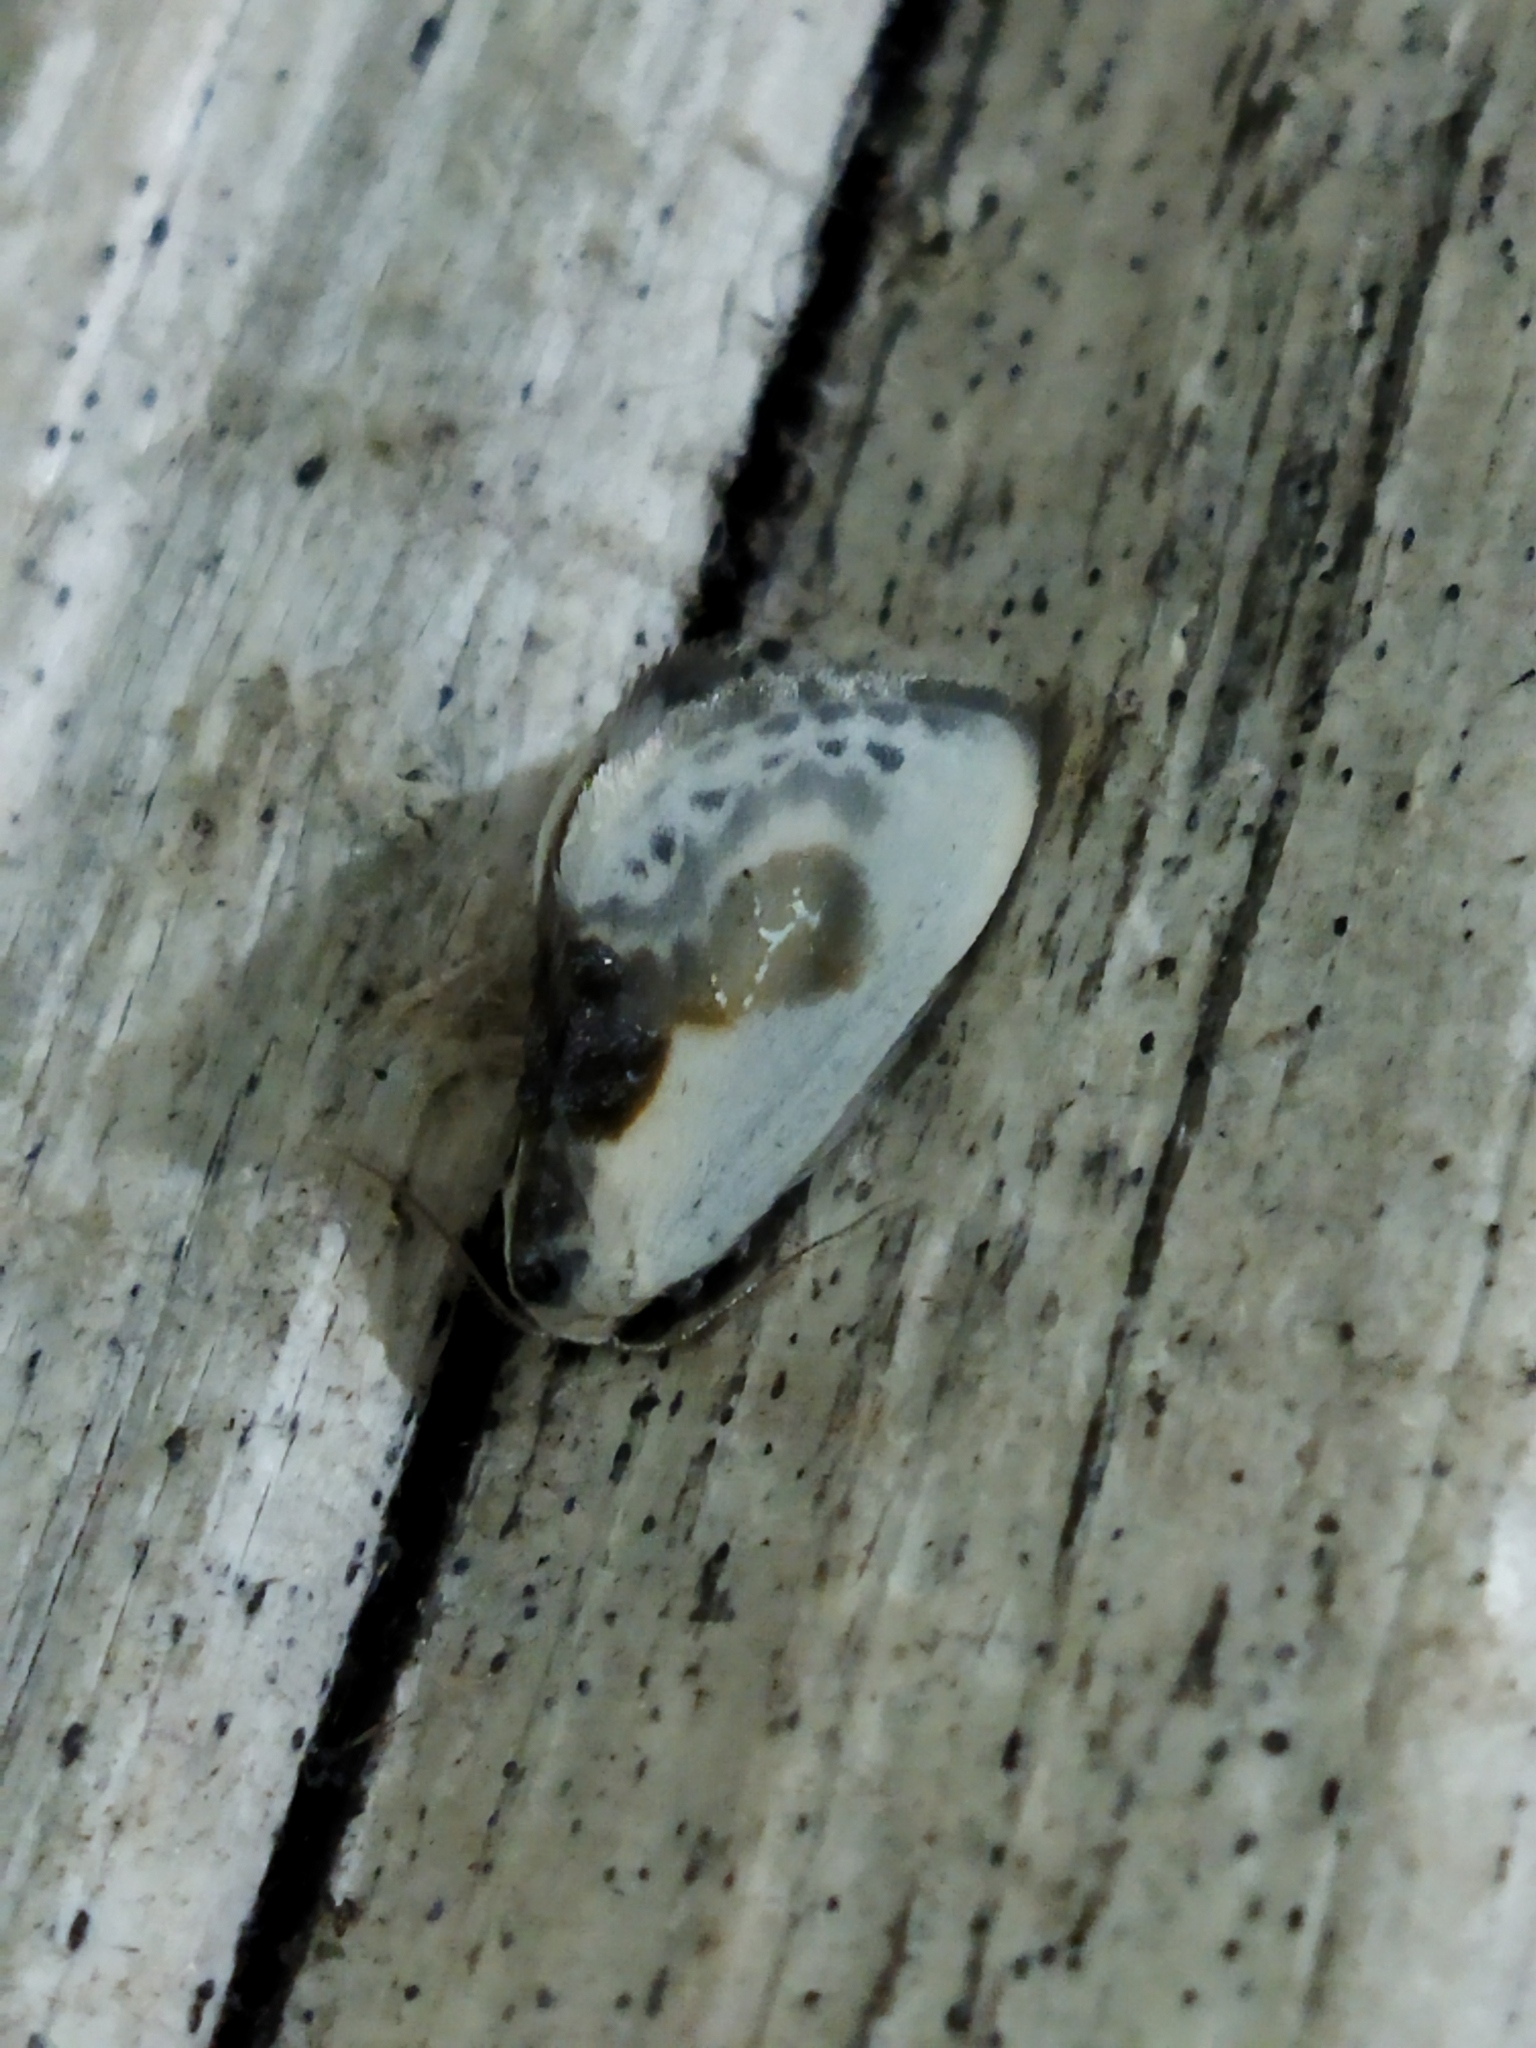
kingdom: Animalia
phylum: Arthropoda
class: Insecta
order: Lepidoptera
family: Drepanidae
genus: Cilix
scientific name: Cilix glaucata
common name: Chinese character
